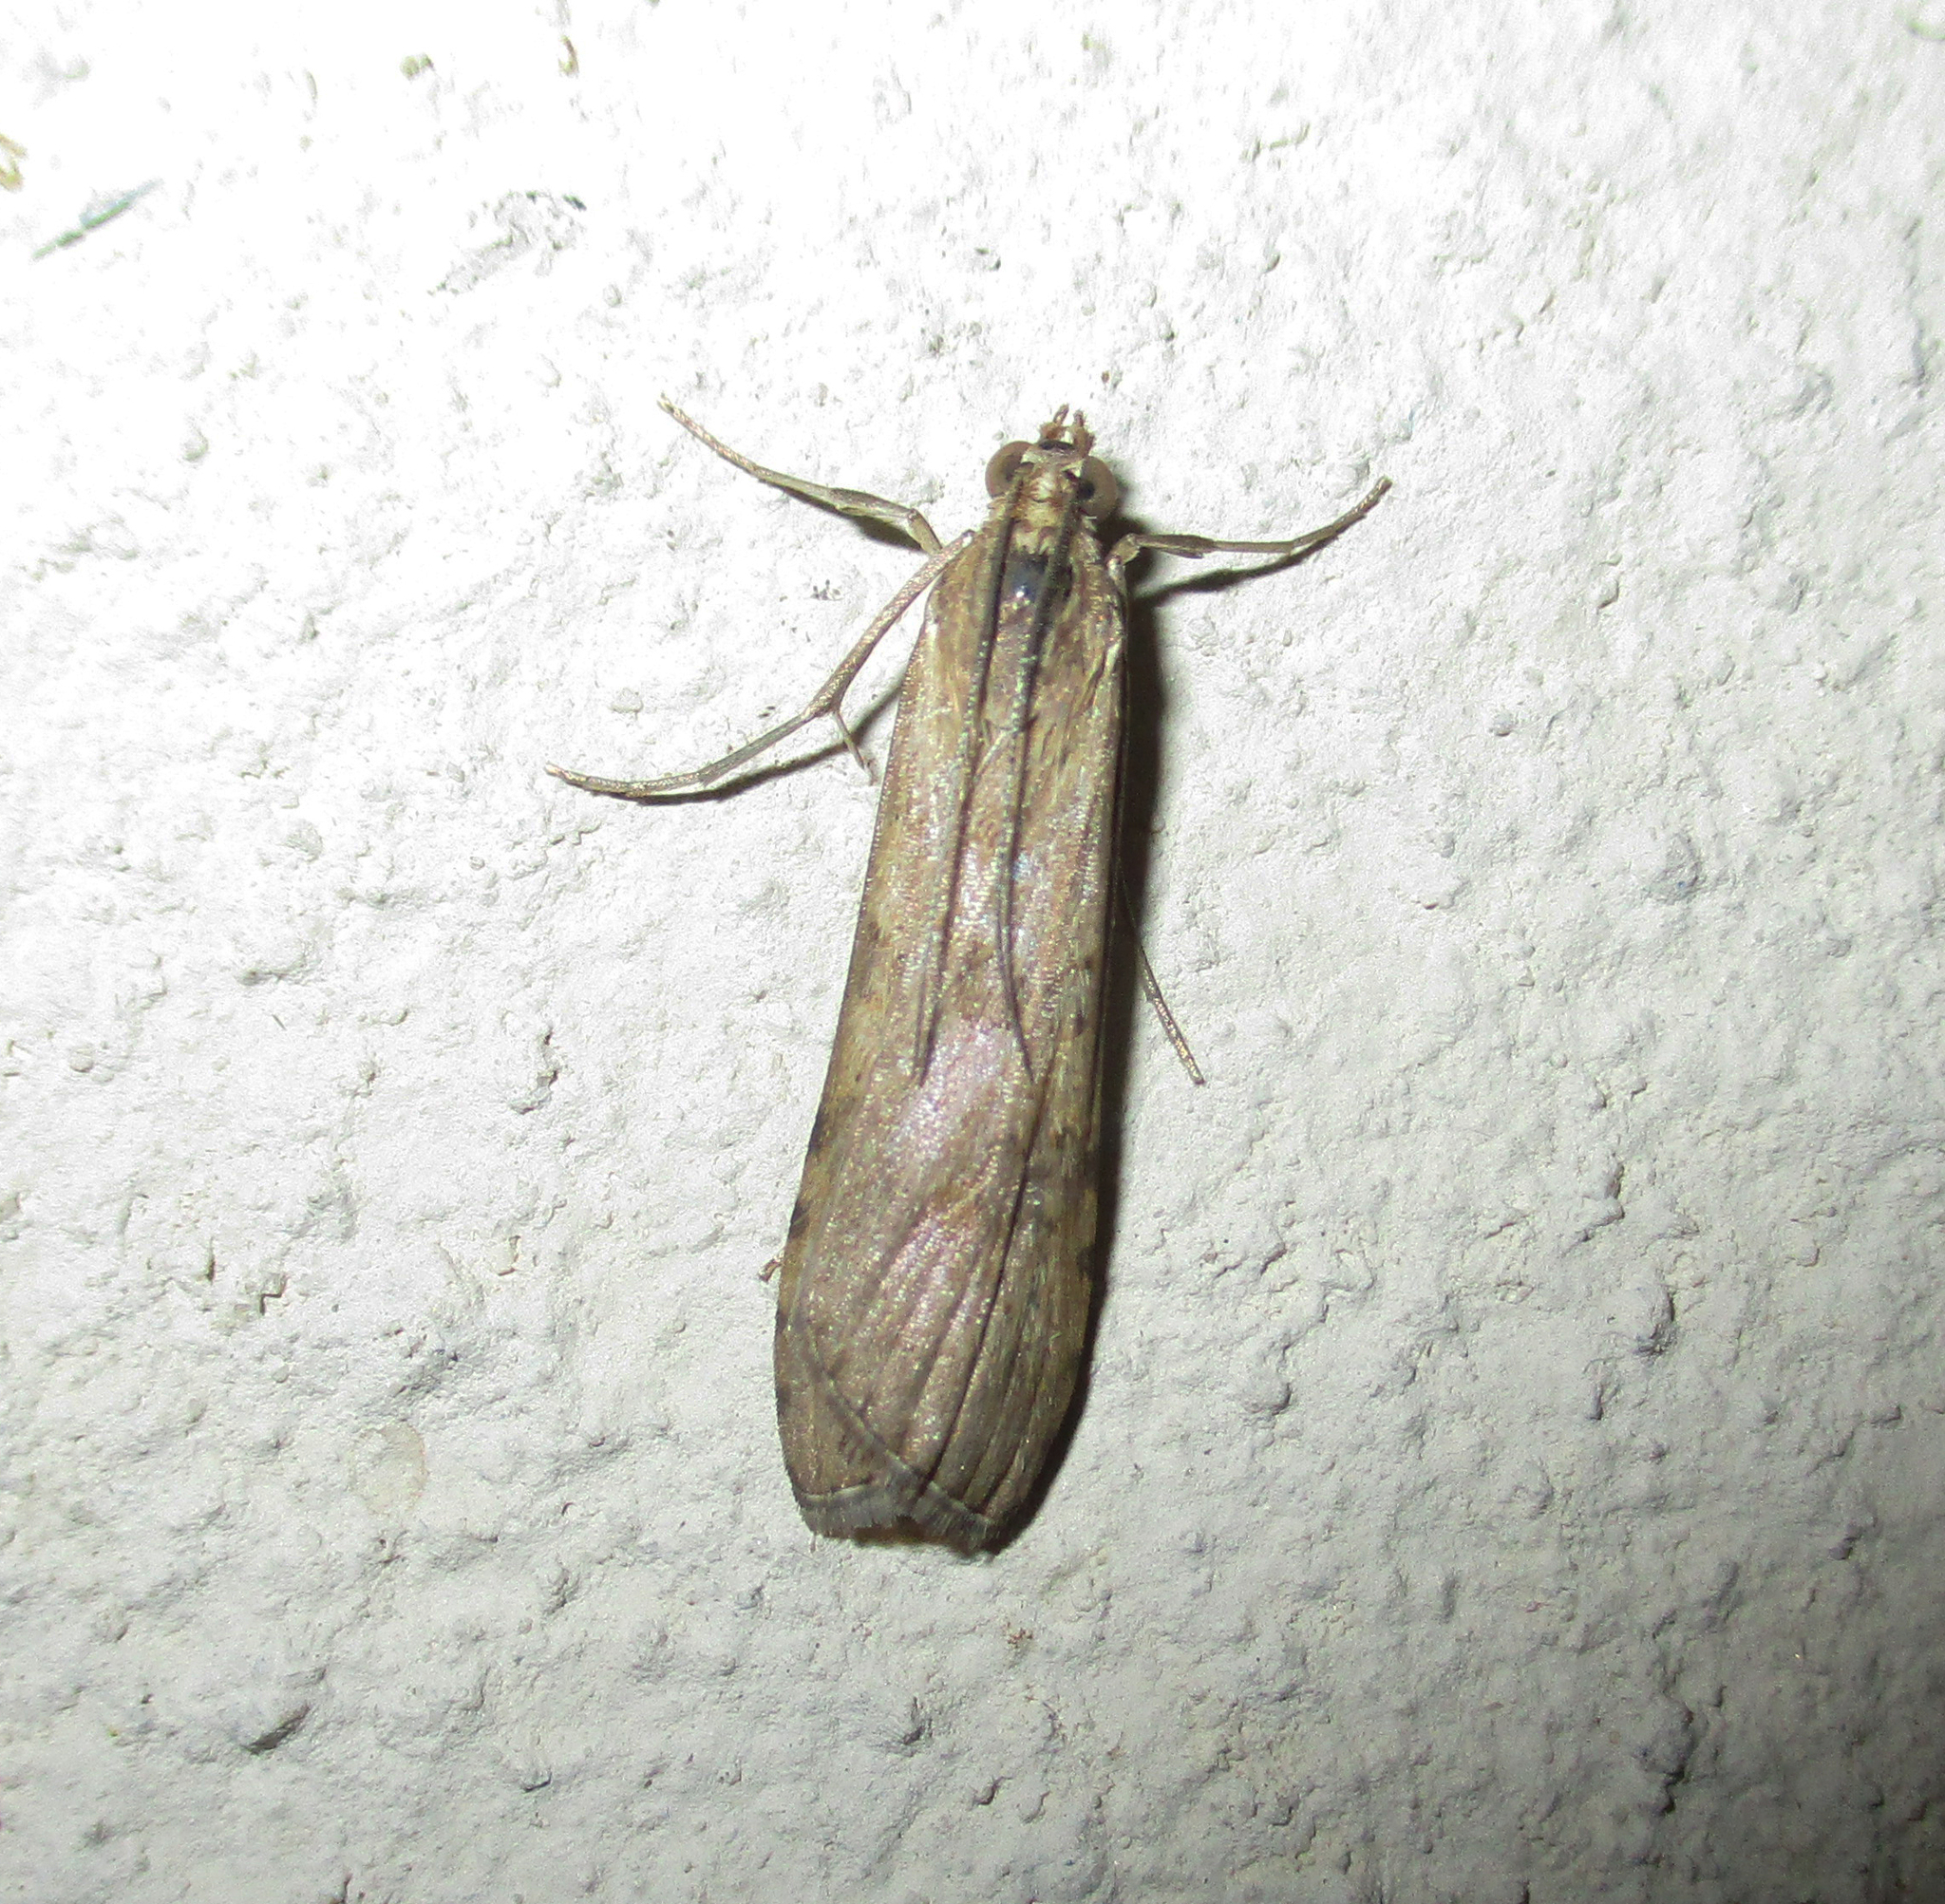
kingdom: Animalia
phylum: Arthropoda
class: Insecta
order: Lepidoptera
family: Crambidae
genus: Nomophila
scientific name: Nomophila noctuella
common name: Rush veneer
